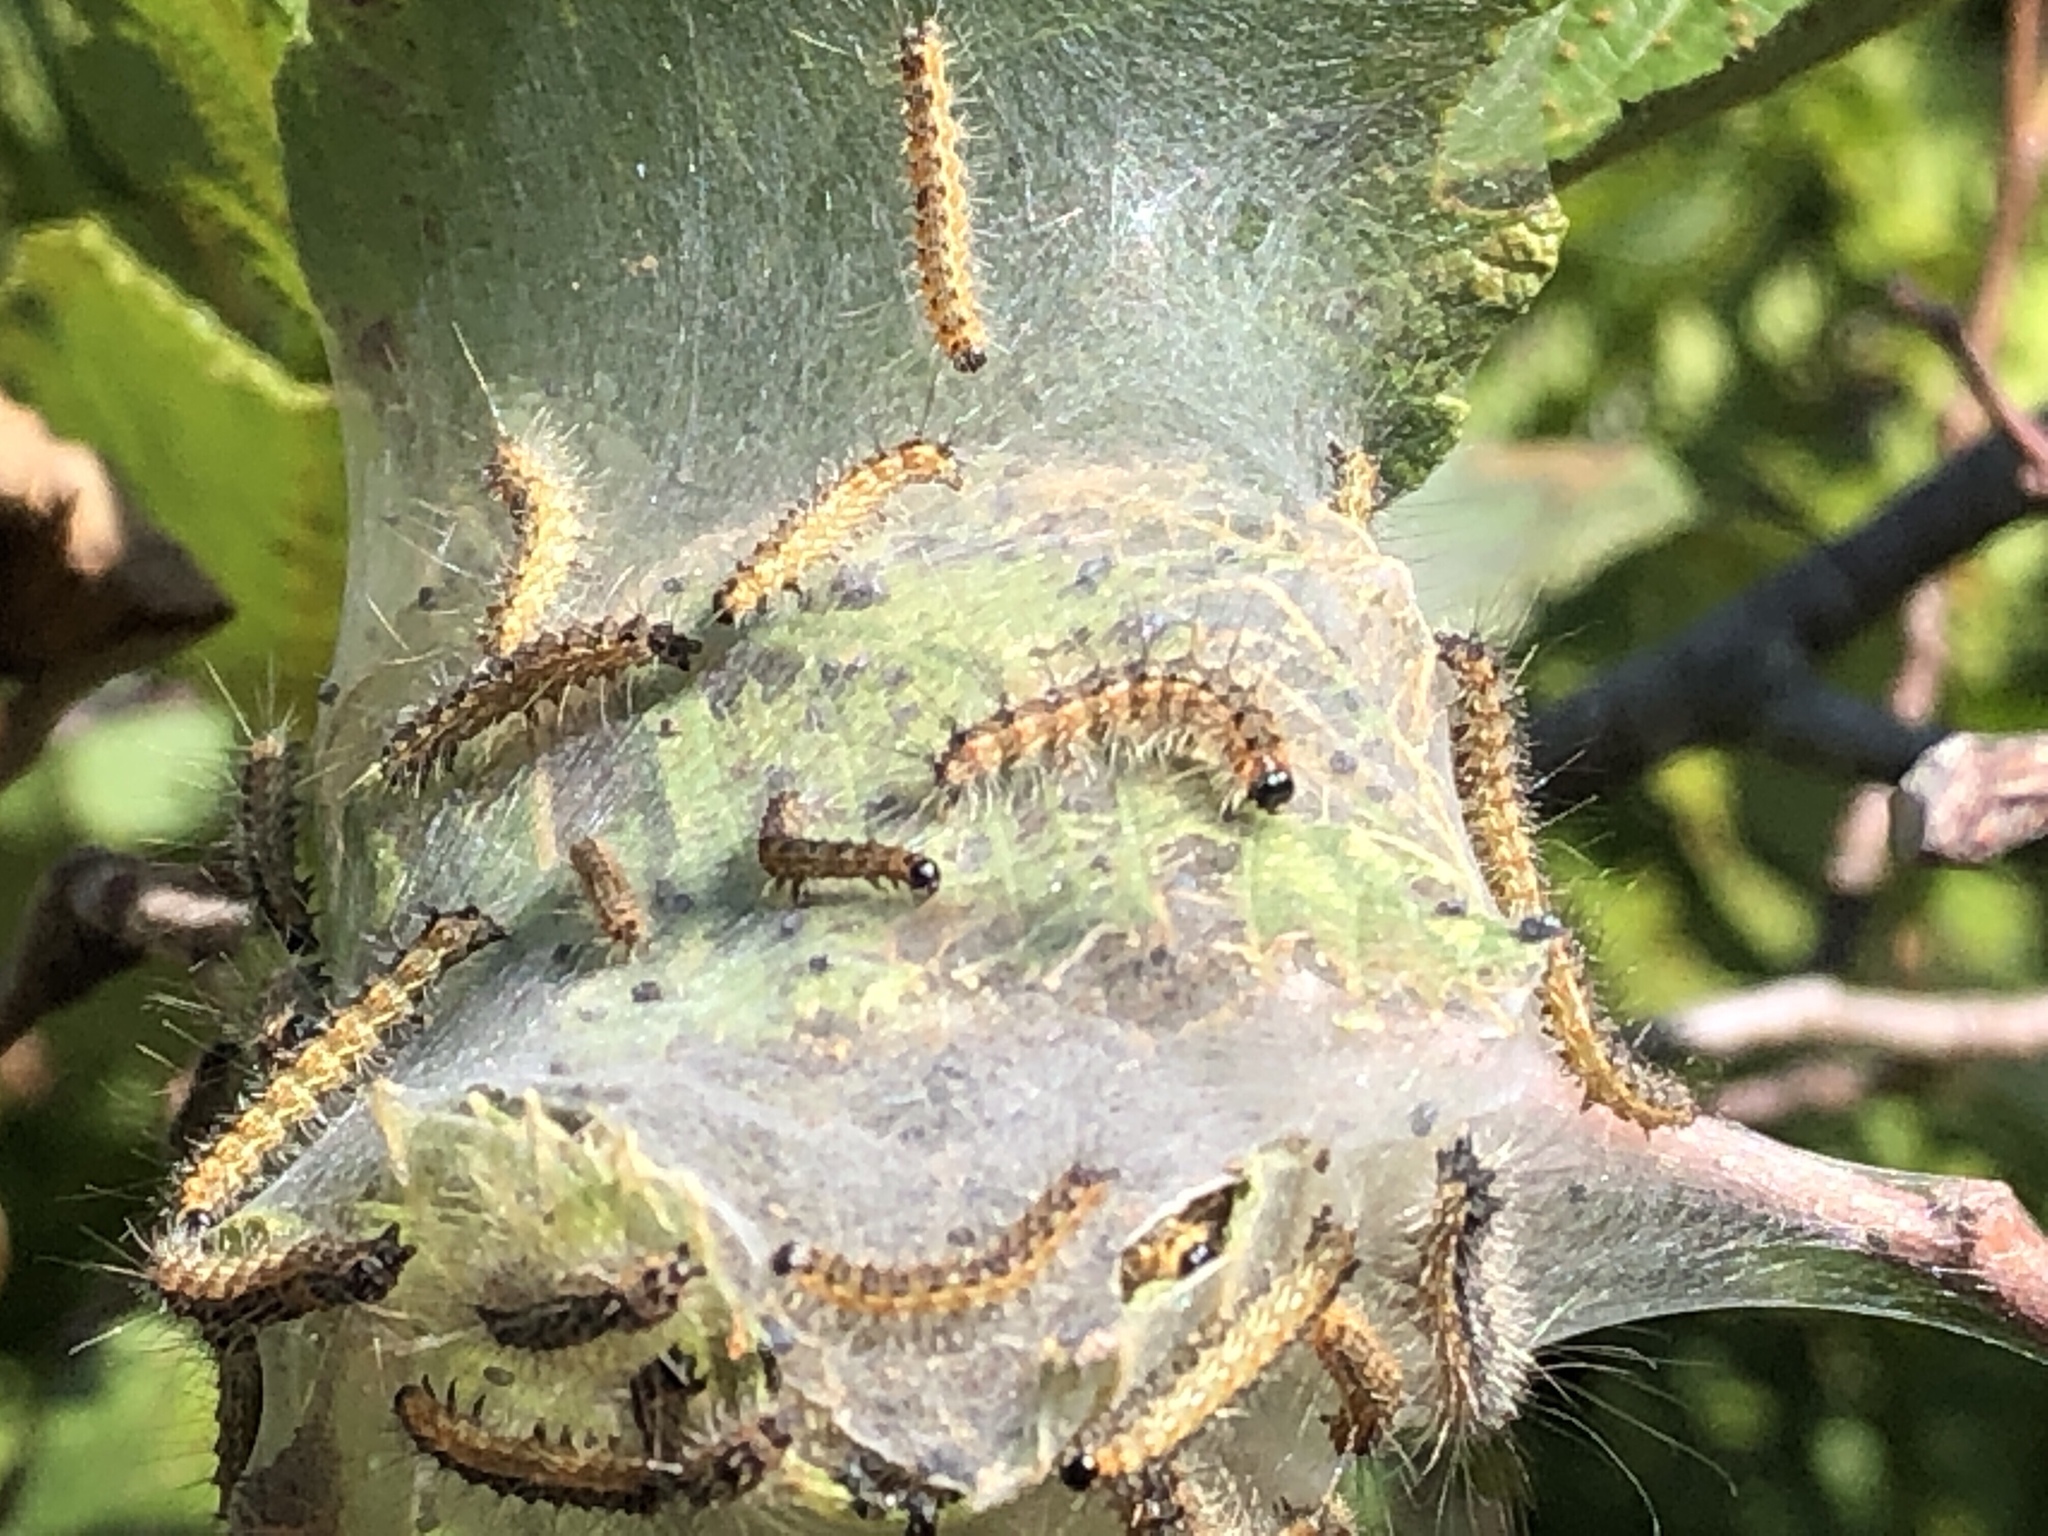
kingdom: Animalia
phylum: Arthropoda
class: Insecta
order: Lepidoptera
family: Erebidae
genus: Hyphantria
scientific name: Hyphantria cunea
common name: American white moth
